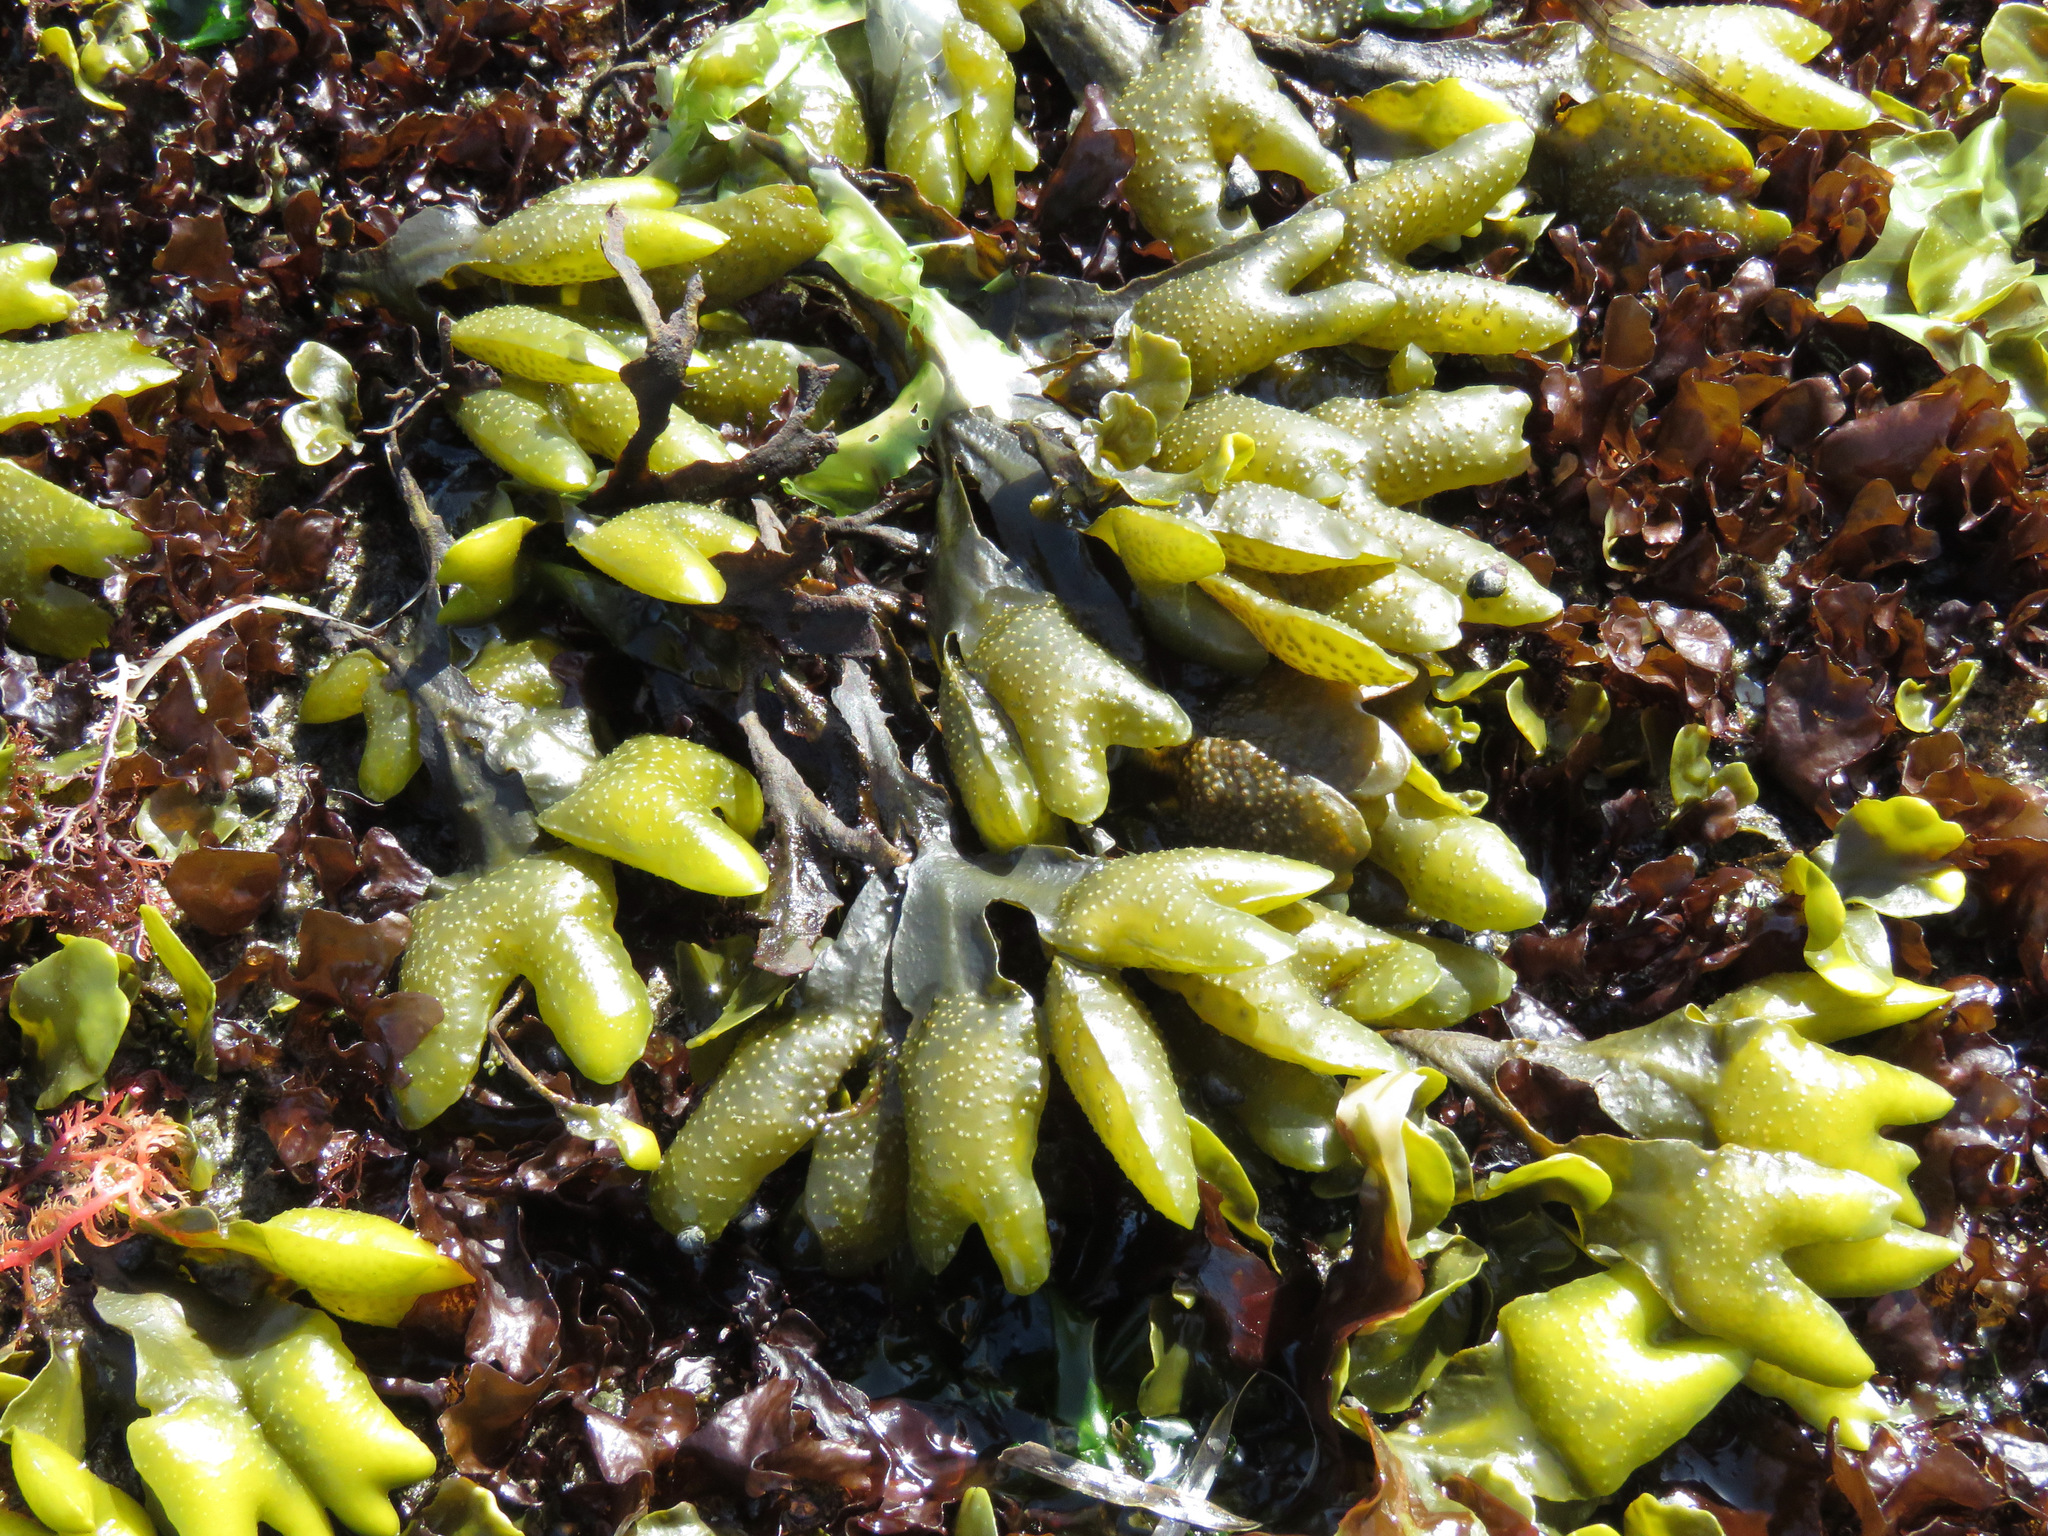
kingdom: Chromista
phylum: Ochrophyta
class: Phaeophyceae
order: Fucales
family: Fucaceae
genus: Fucus
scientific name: Fucus distichus
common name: Rockweed
